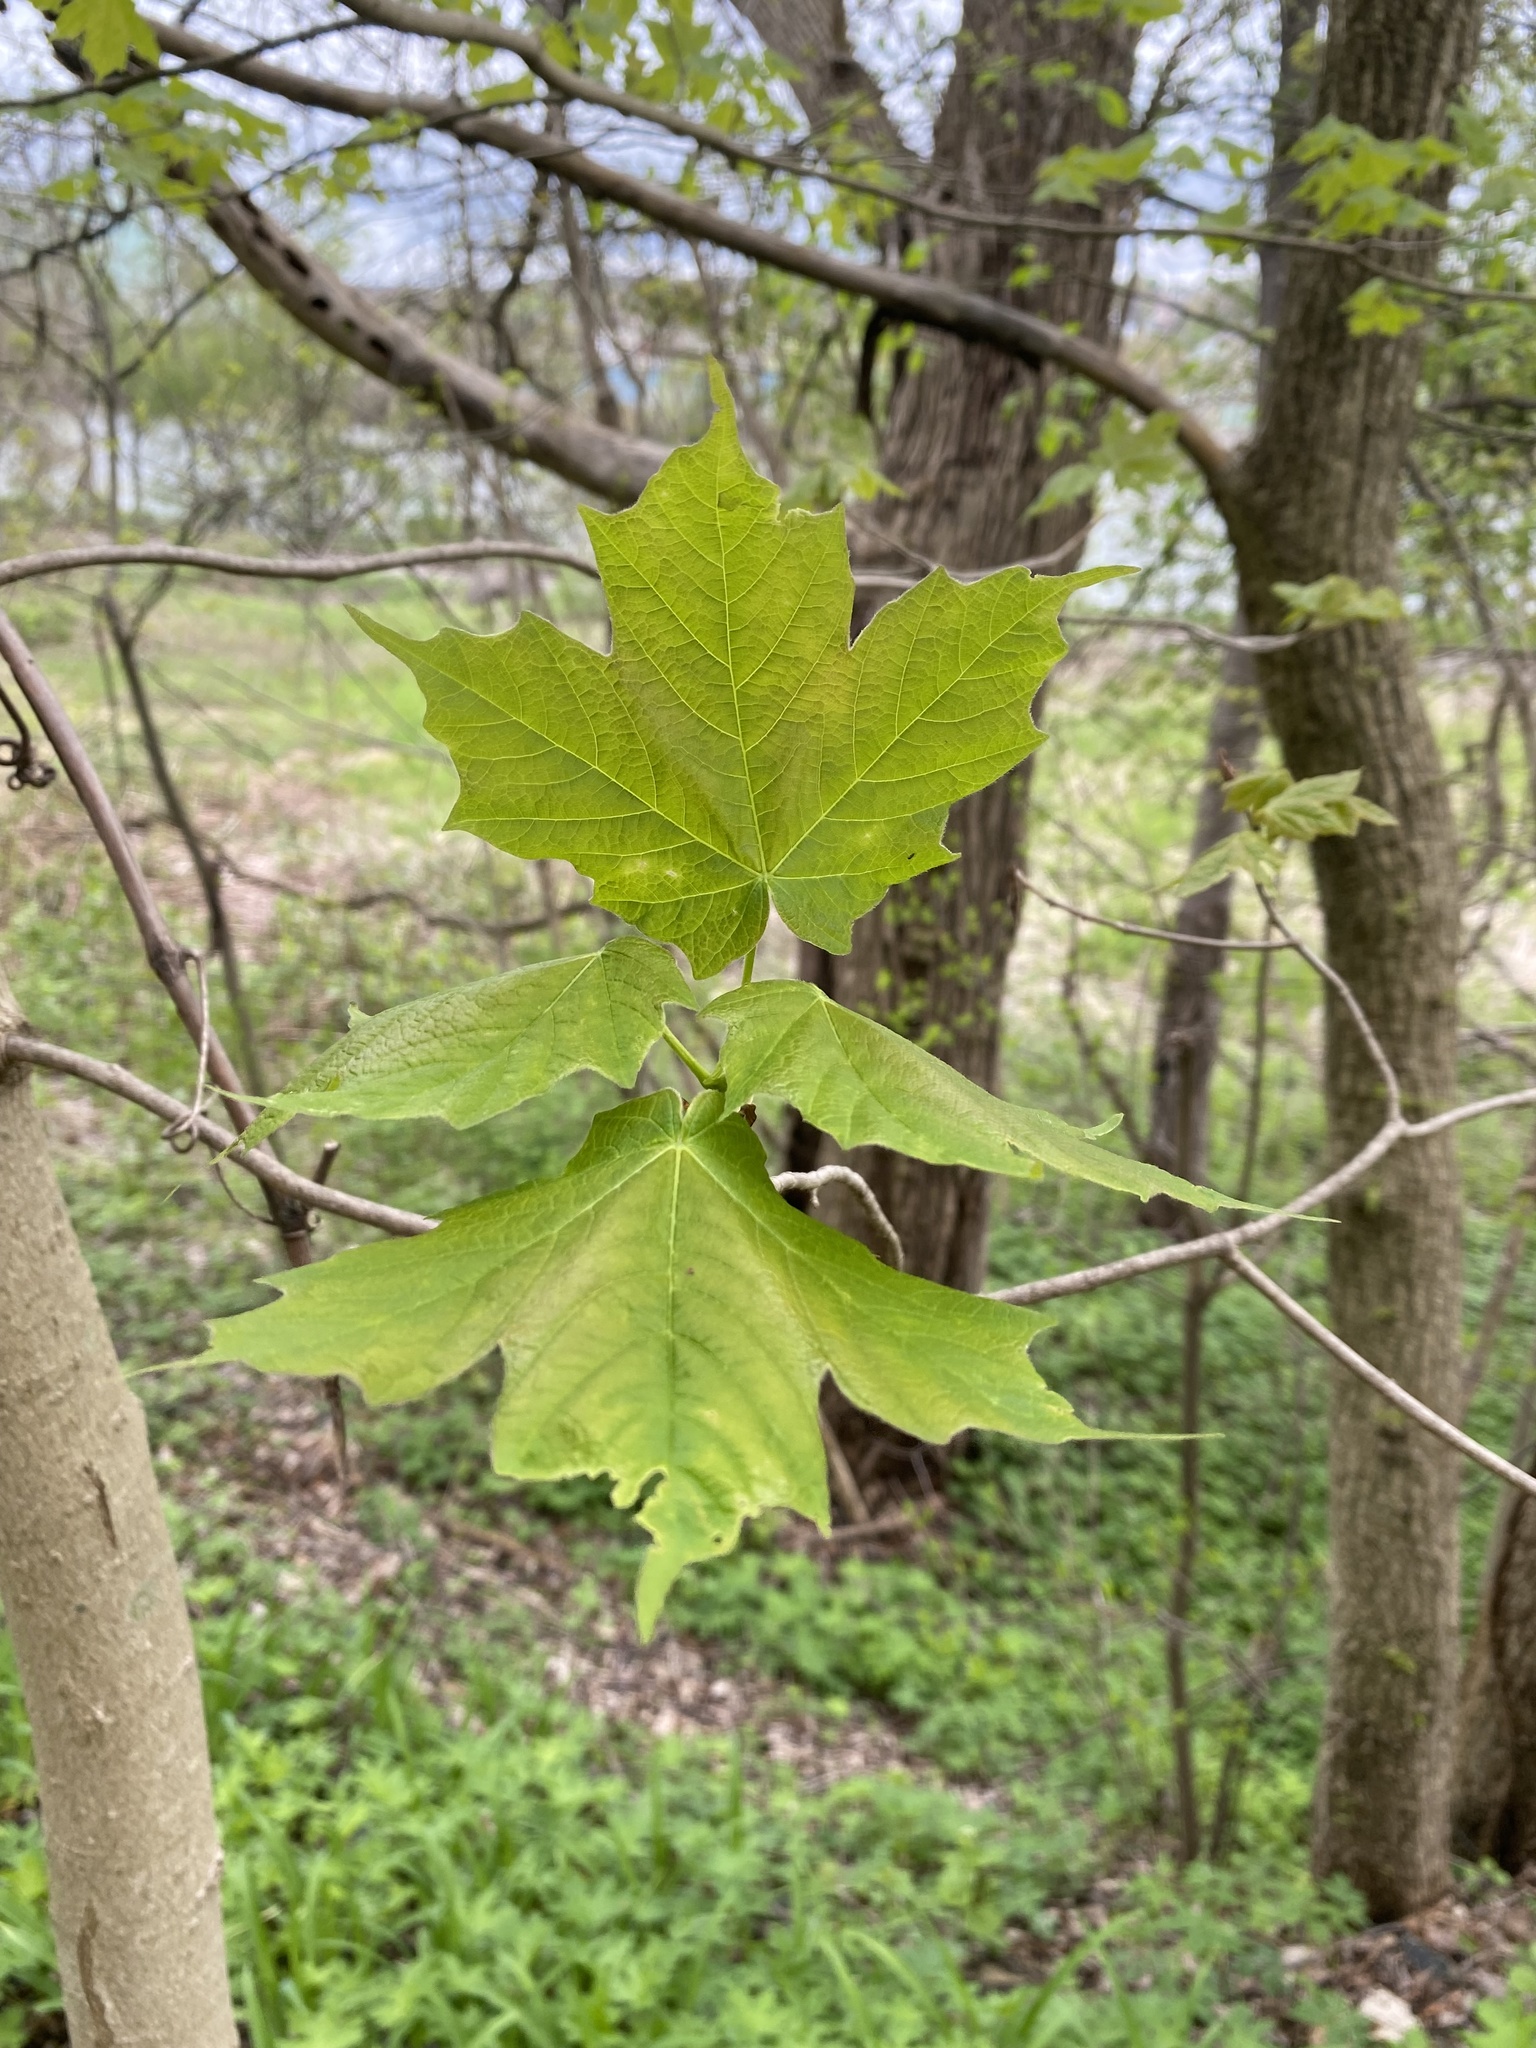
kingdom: Plantae
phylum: Tracheophyta
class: Magnoliopsida
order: Sapindales
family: Sapindaceae
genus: Acer
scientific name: Acer saccharum
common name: Sugar maple
